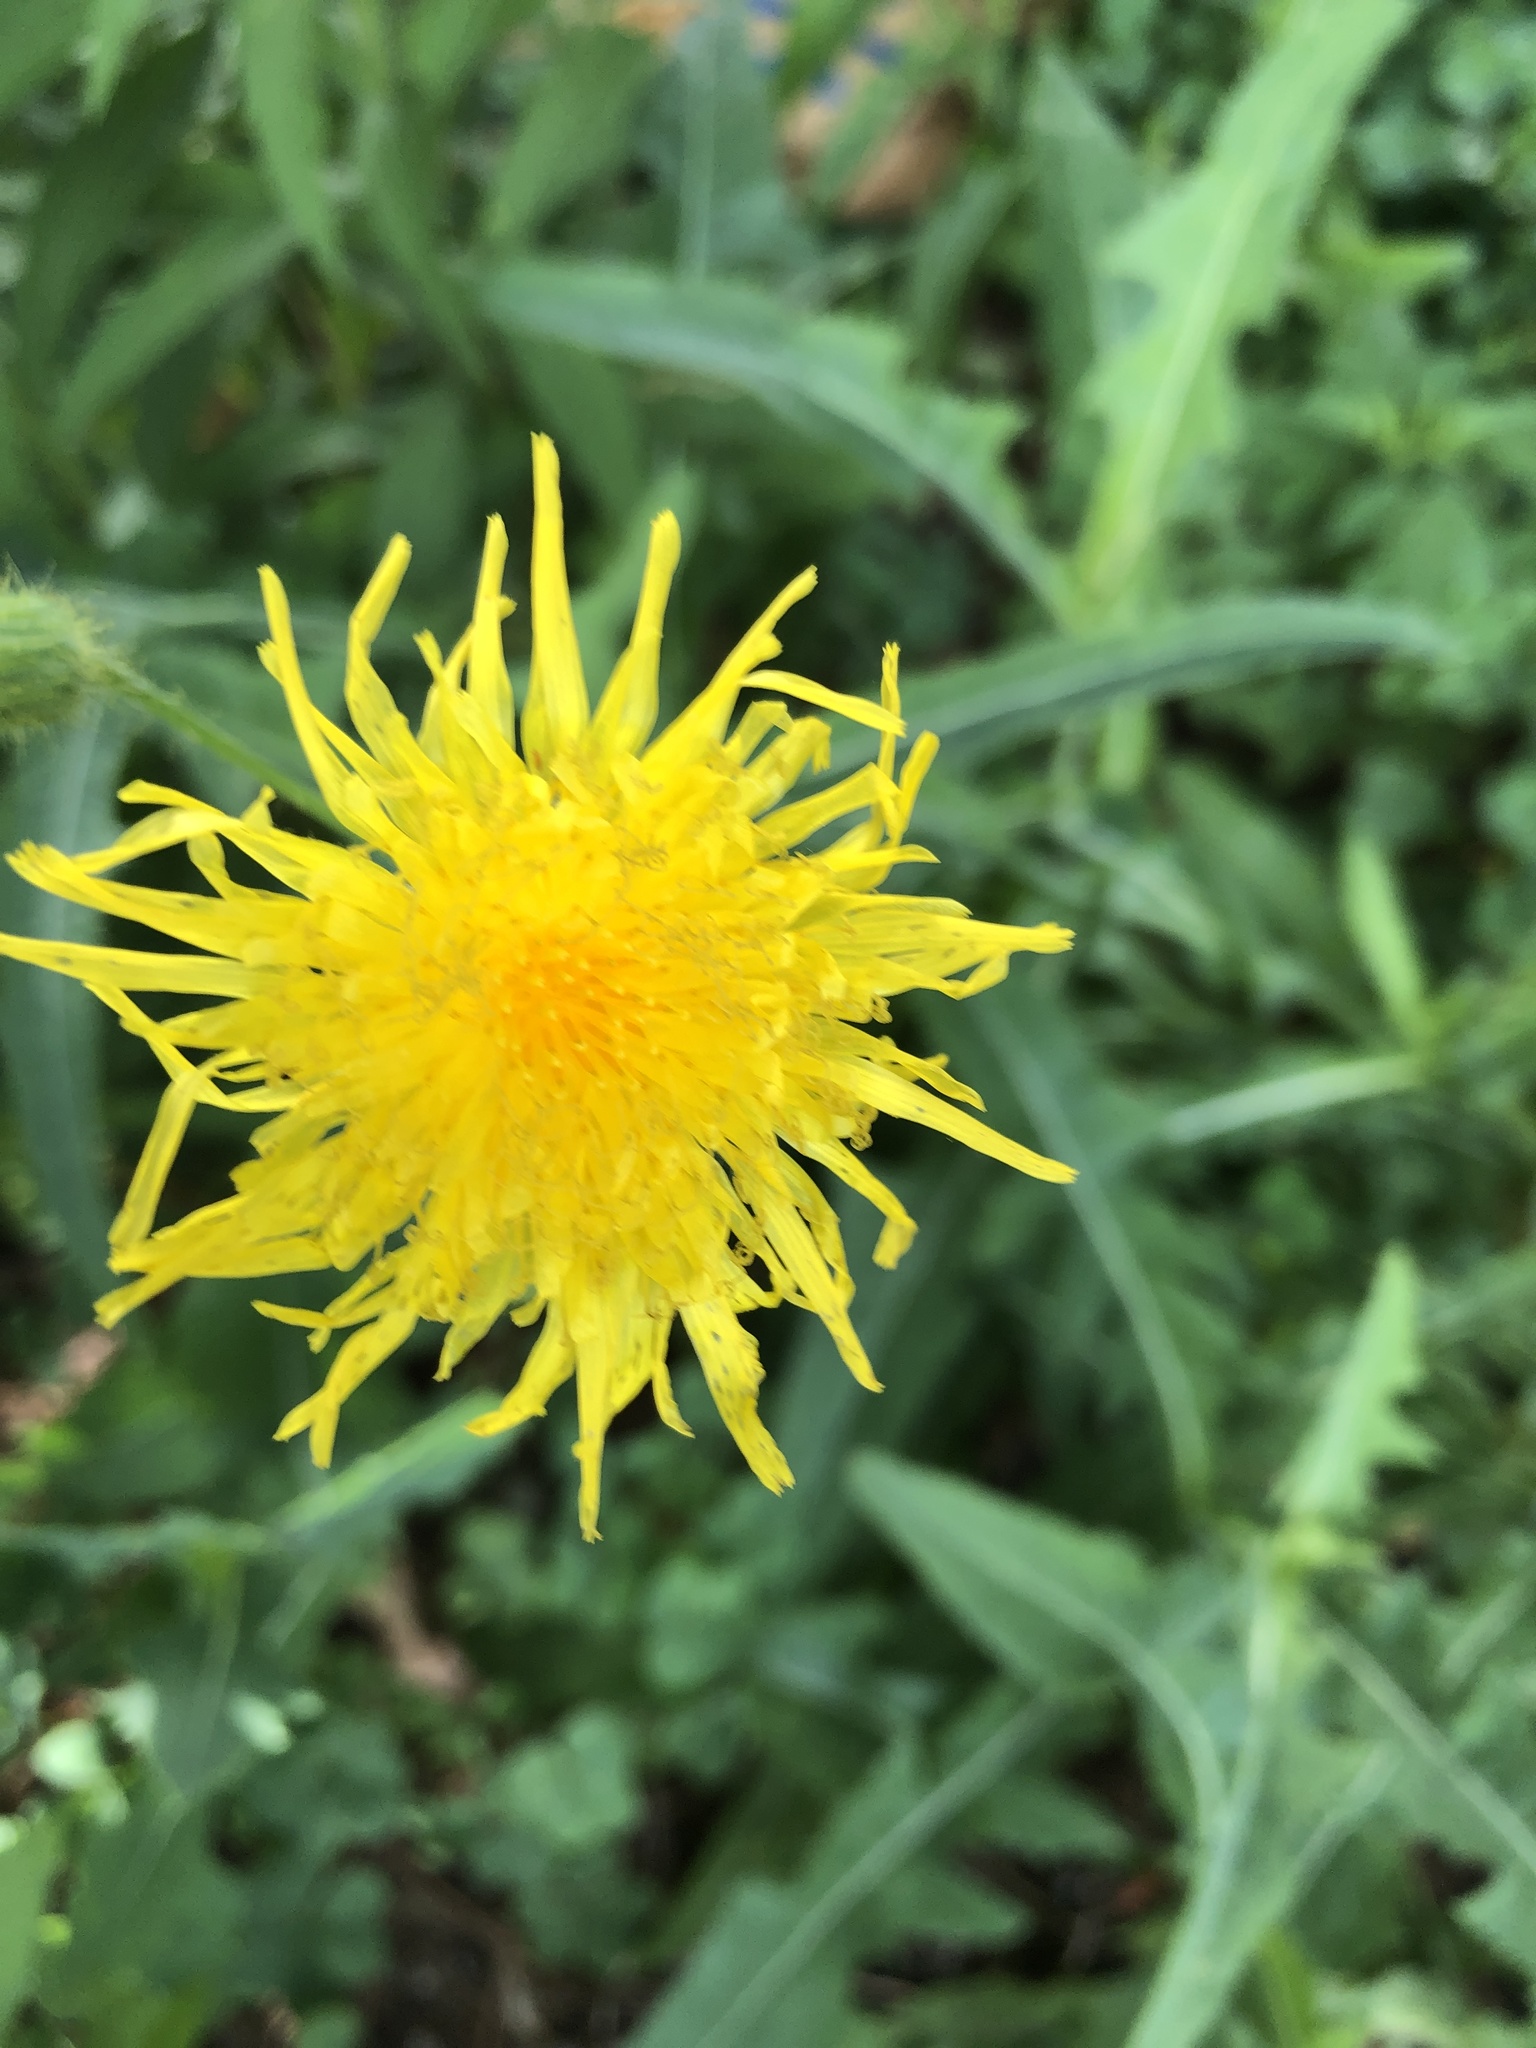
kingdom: Plantae
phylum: Tracheophyta
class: Magnoliopsida
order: Asterales
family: Asteraceae
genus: Sonchus
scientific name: Sonchus arvensis
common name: Perennial sow-thistle
